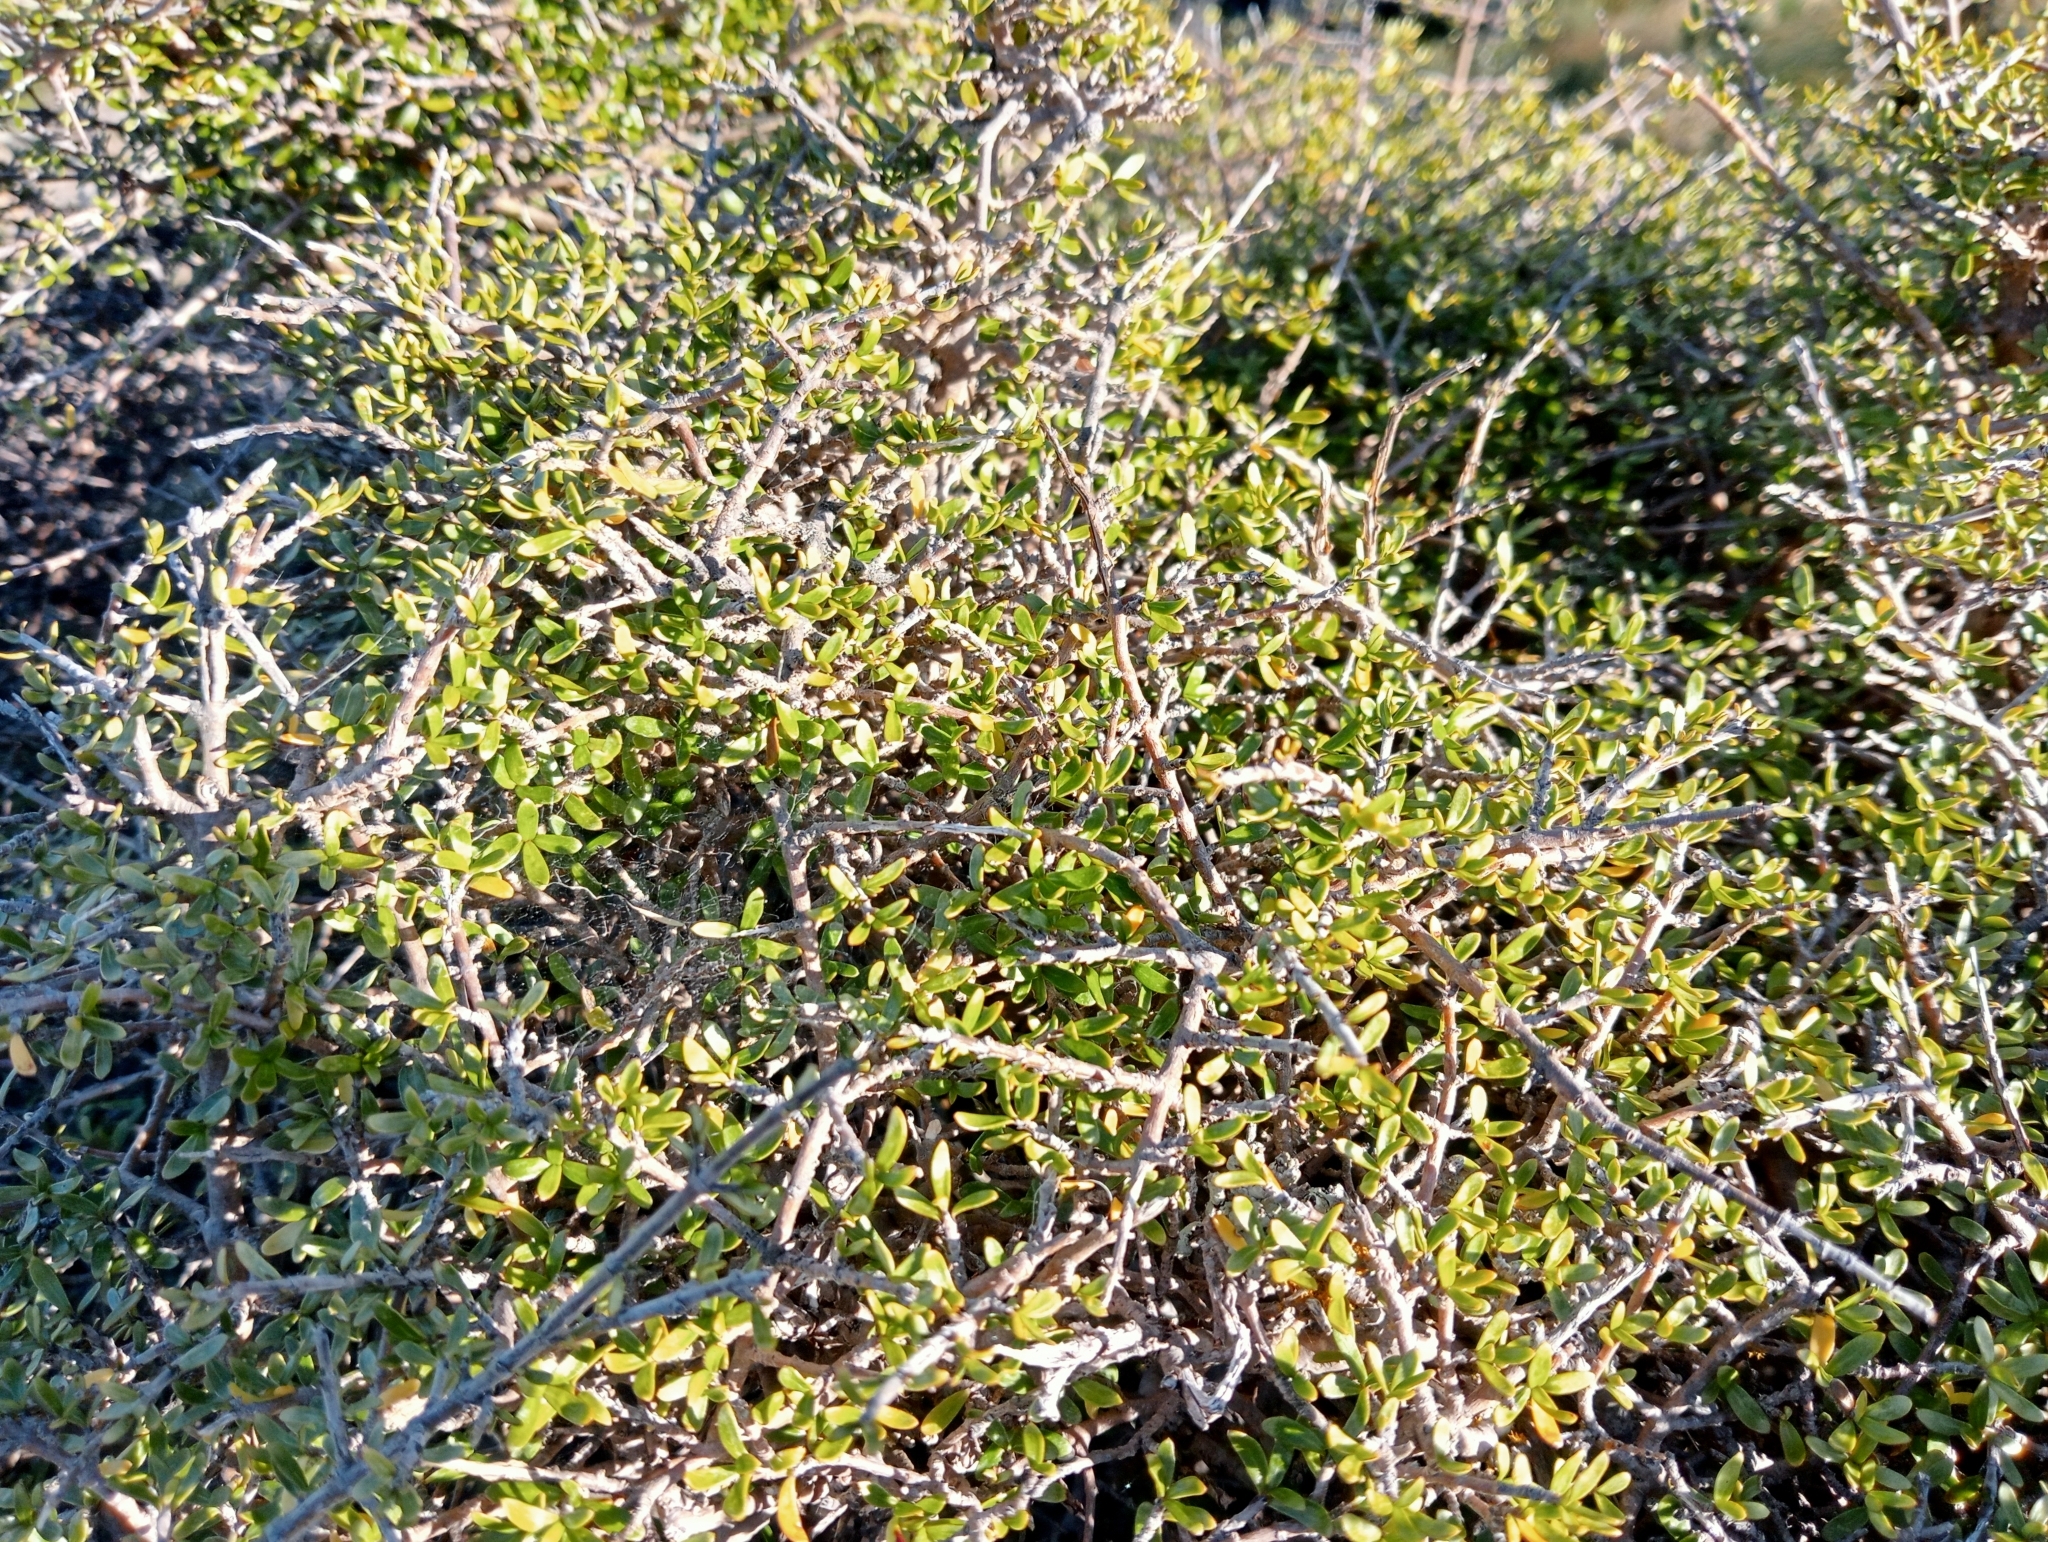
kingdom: Plantae
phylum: Tracheophyta
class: Magnoliopsida
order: Gentianales
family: Rubiaceae
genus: Coprosma
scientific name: Coprosma dumosa
